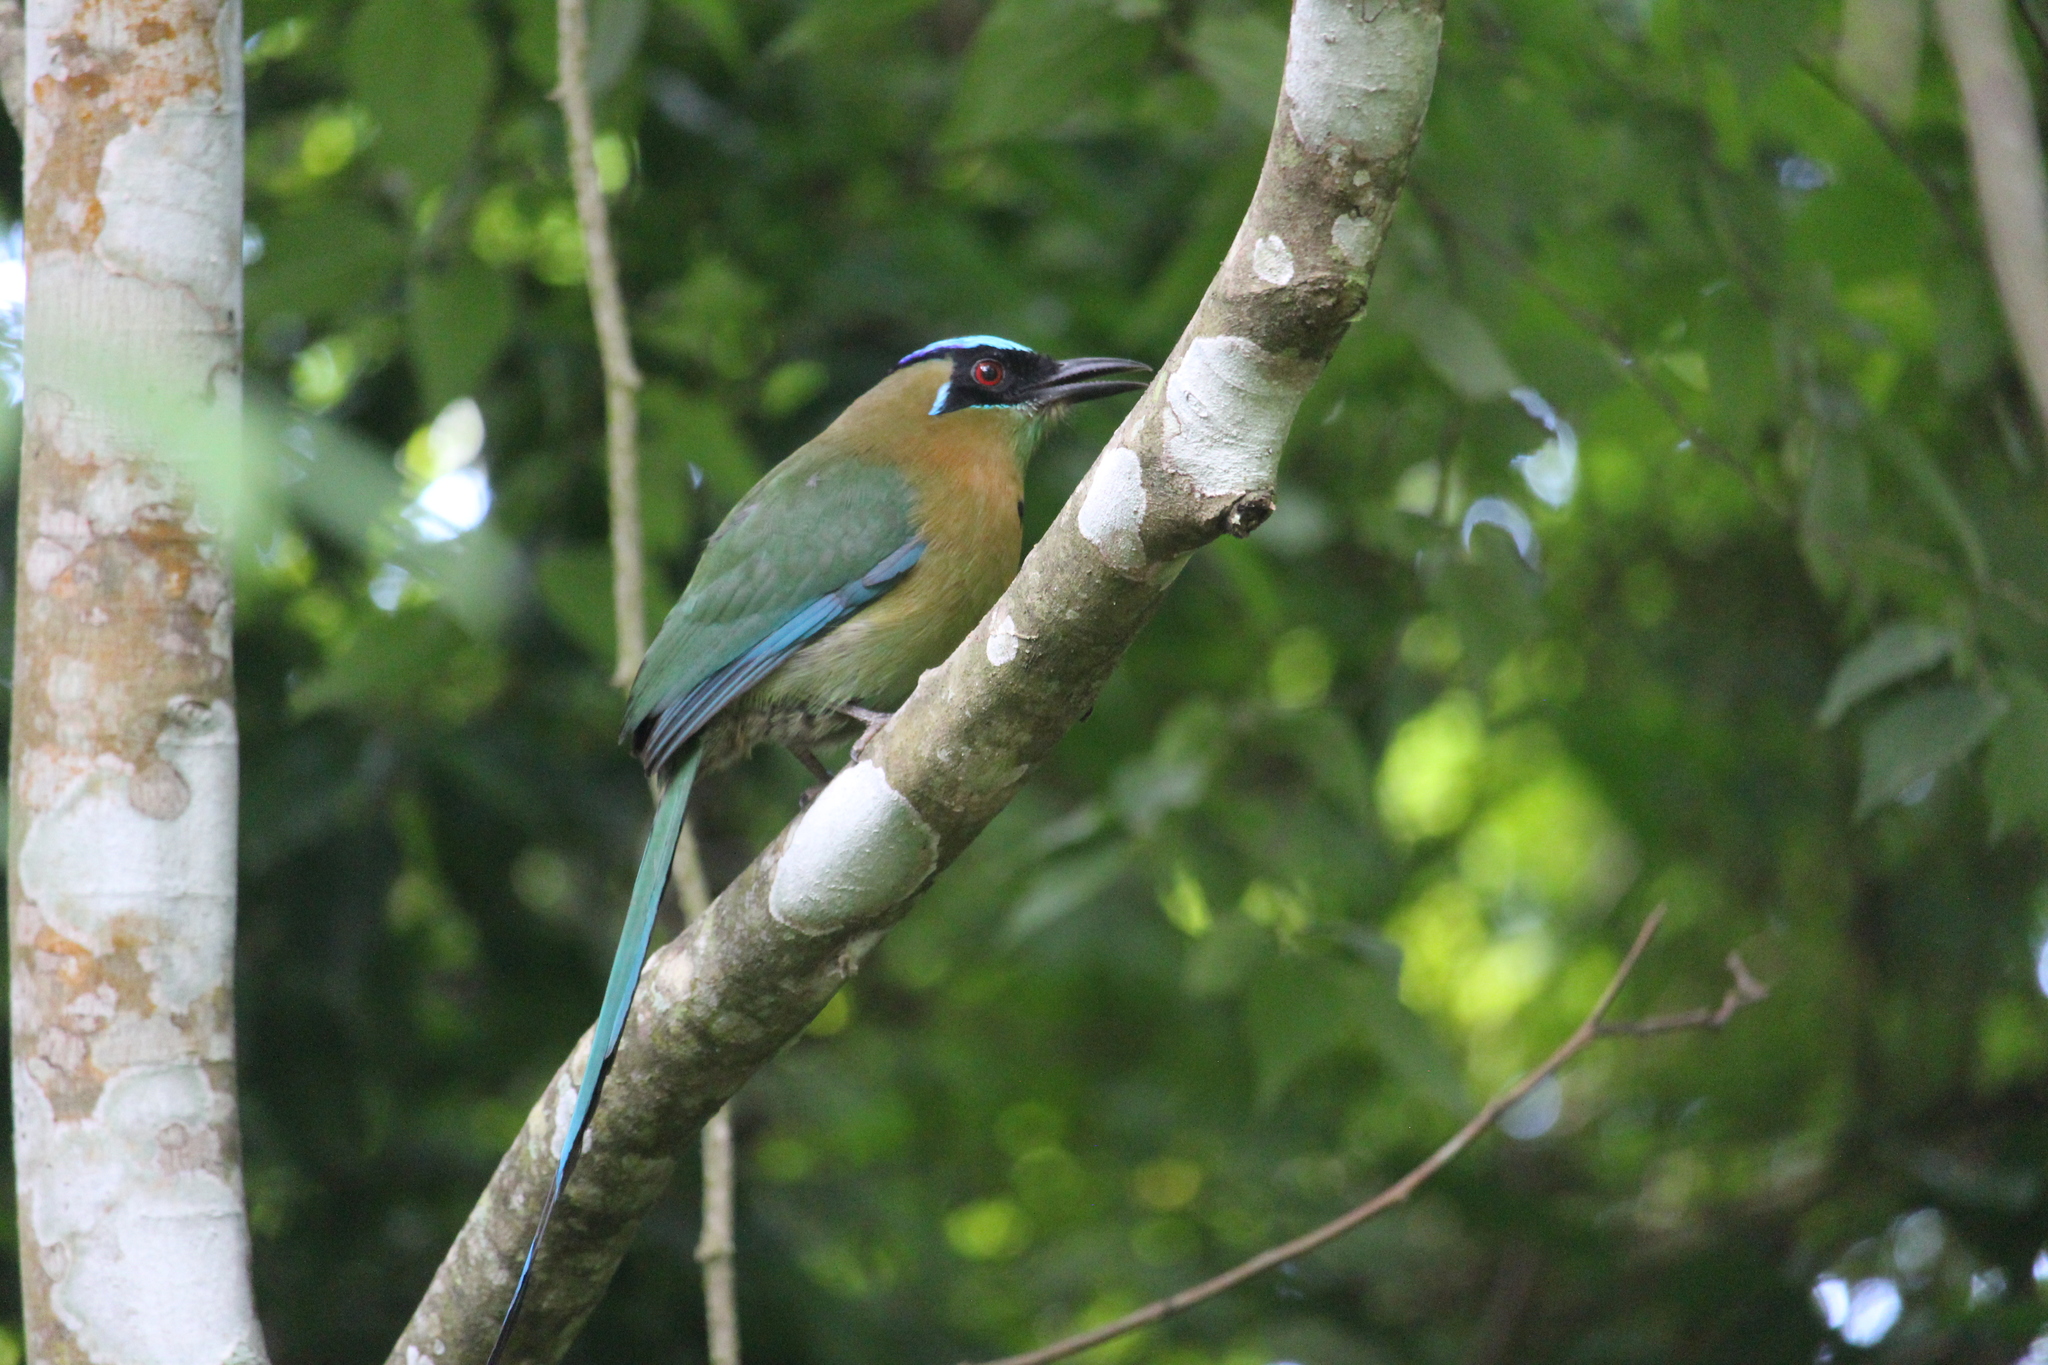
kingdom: Animalia
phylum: Chordata
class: Aves
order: Coraciiformes
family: Momotidae
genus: Momotus
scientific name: Momotus lessonii
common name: Lesson's motmot
